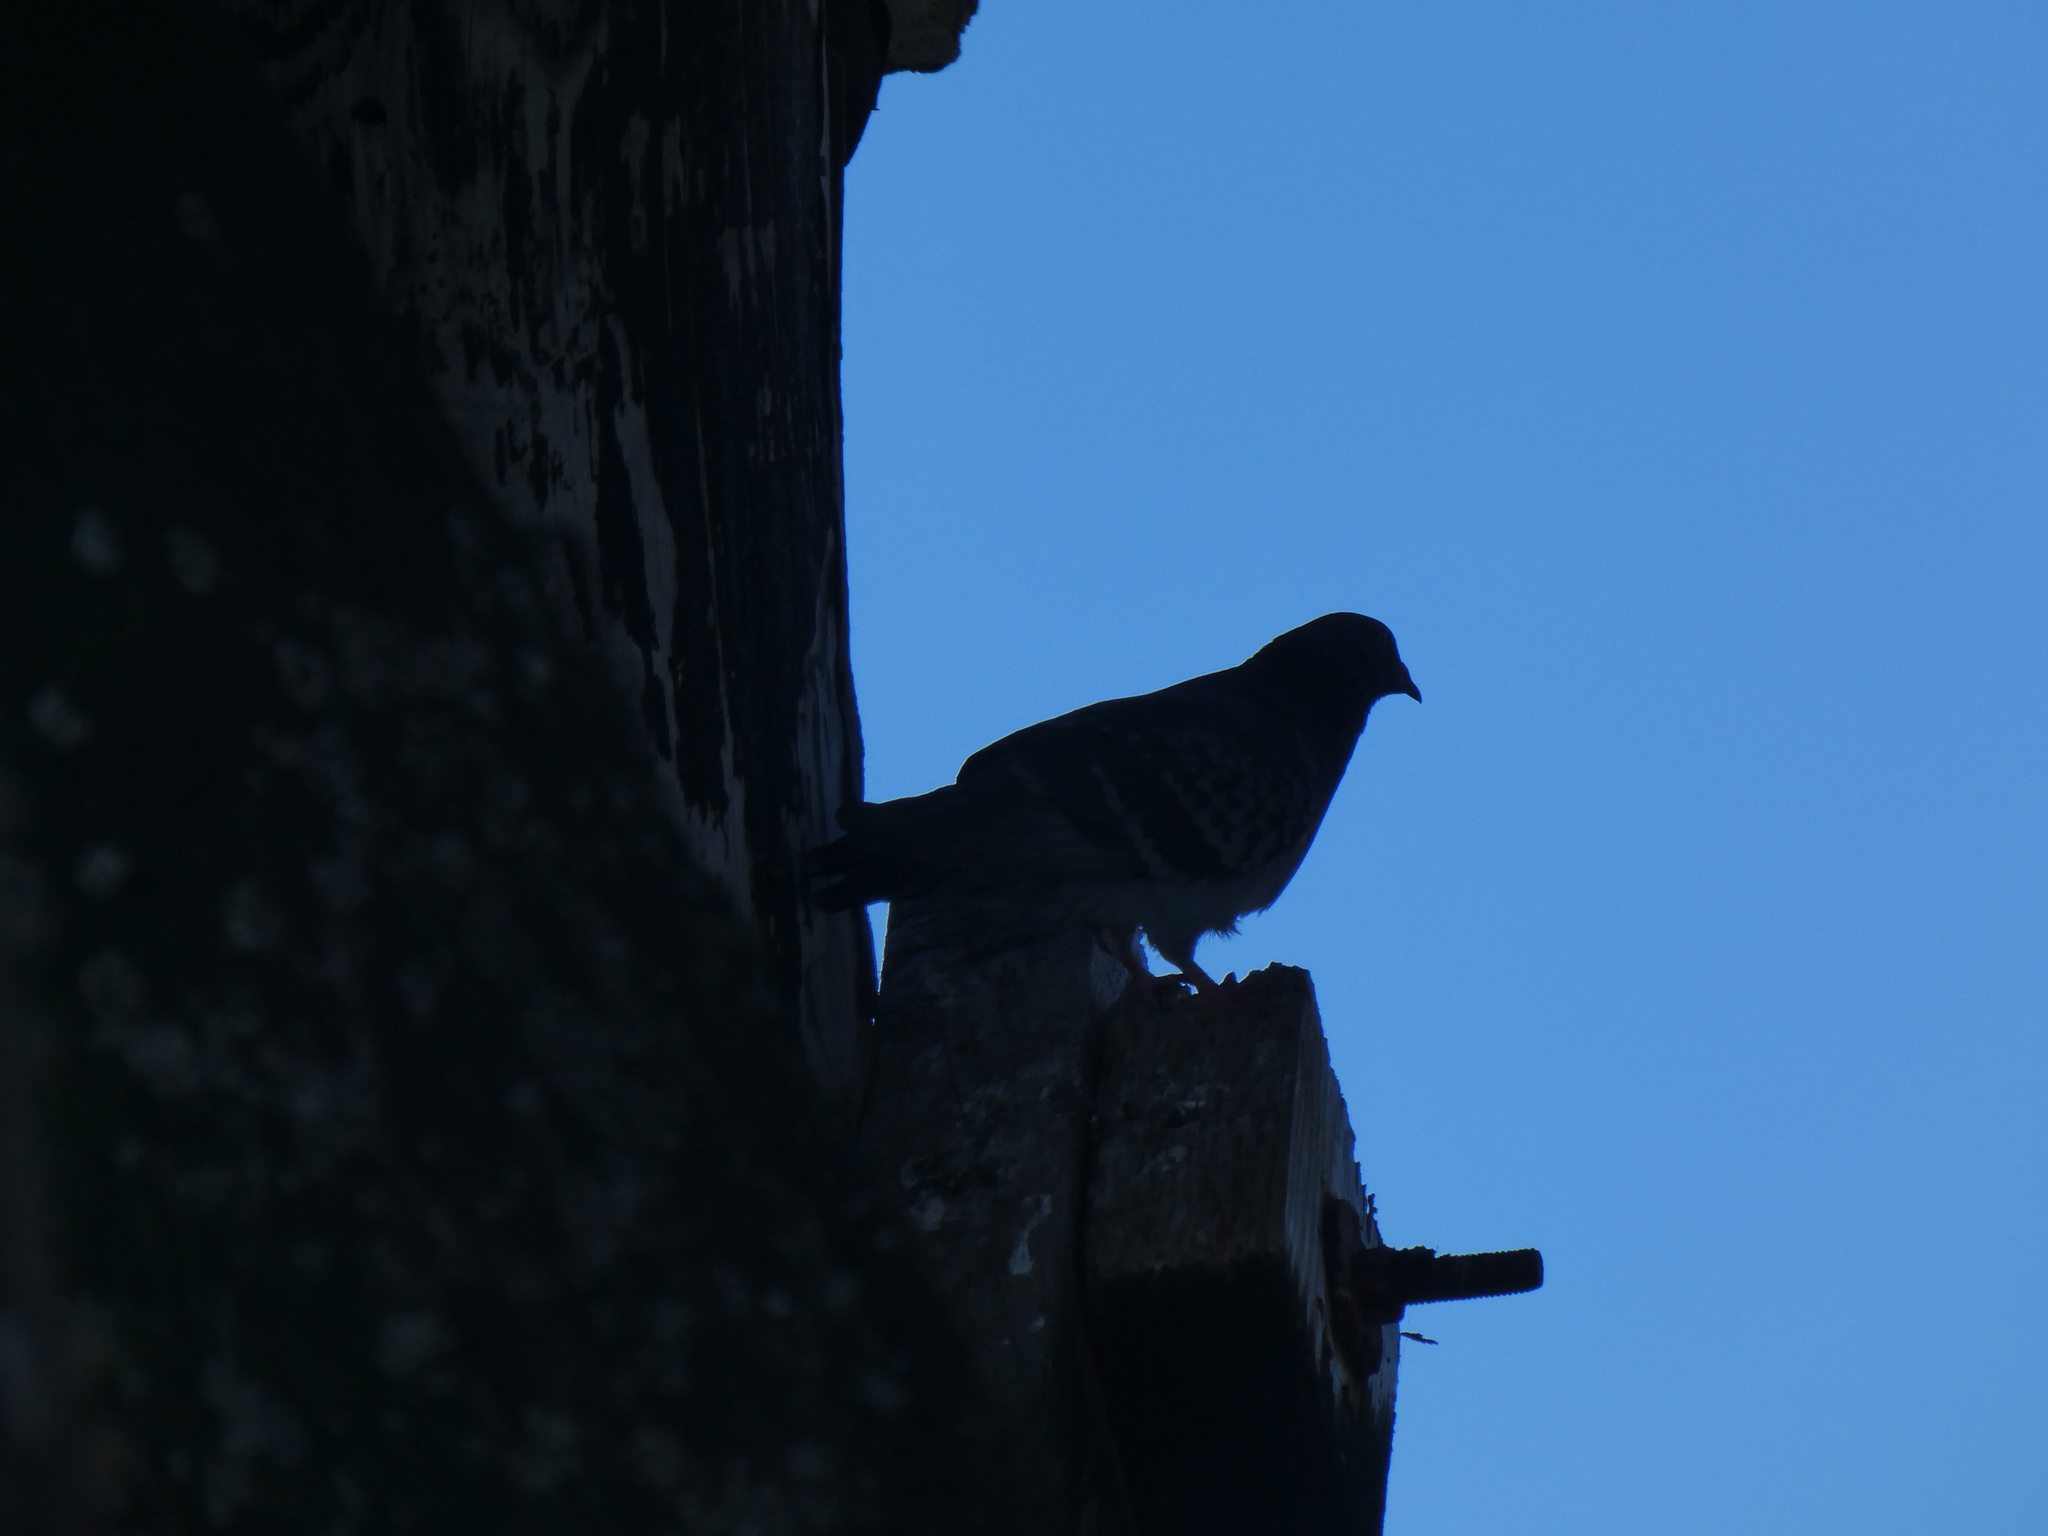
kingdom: Animalia
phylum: Chordata
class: Aves
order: Columbiformes
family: Columbidae
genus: Columba
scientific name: Columba livia
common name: Rock pigeon
